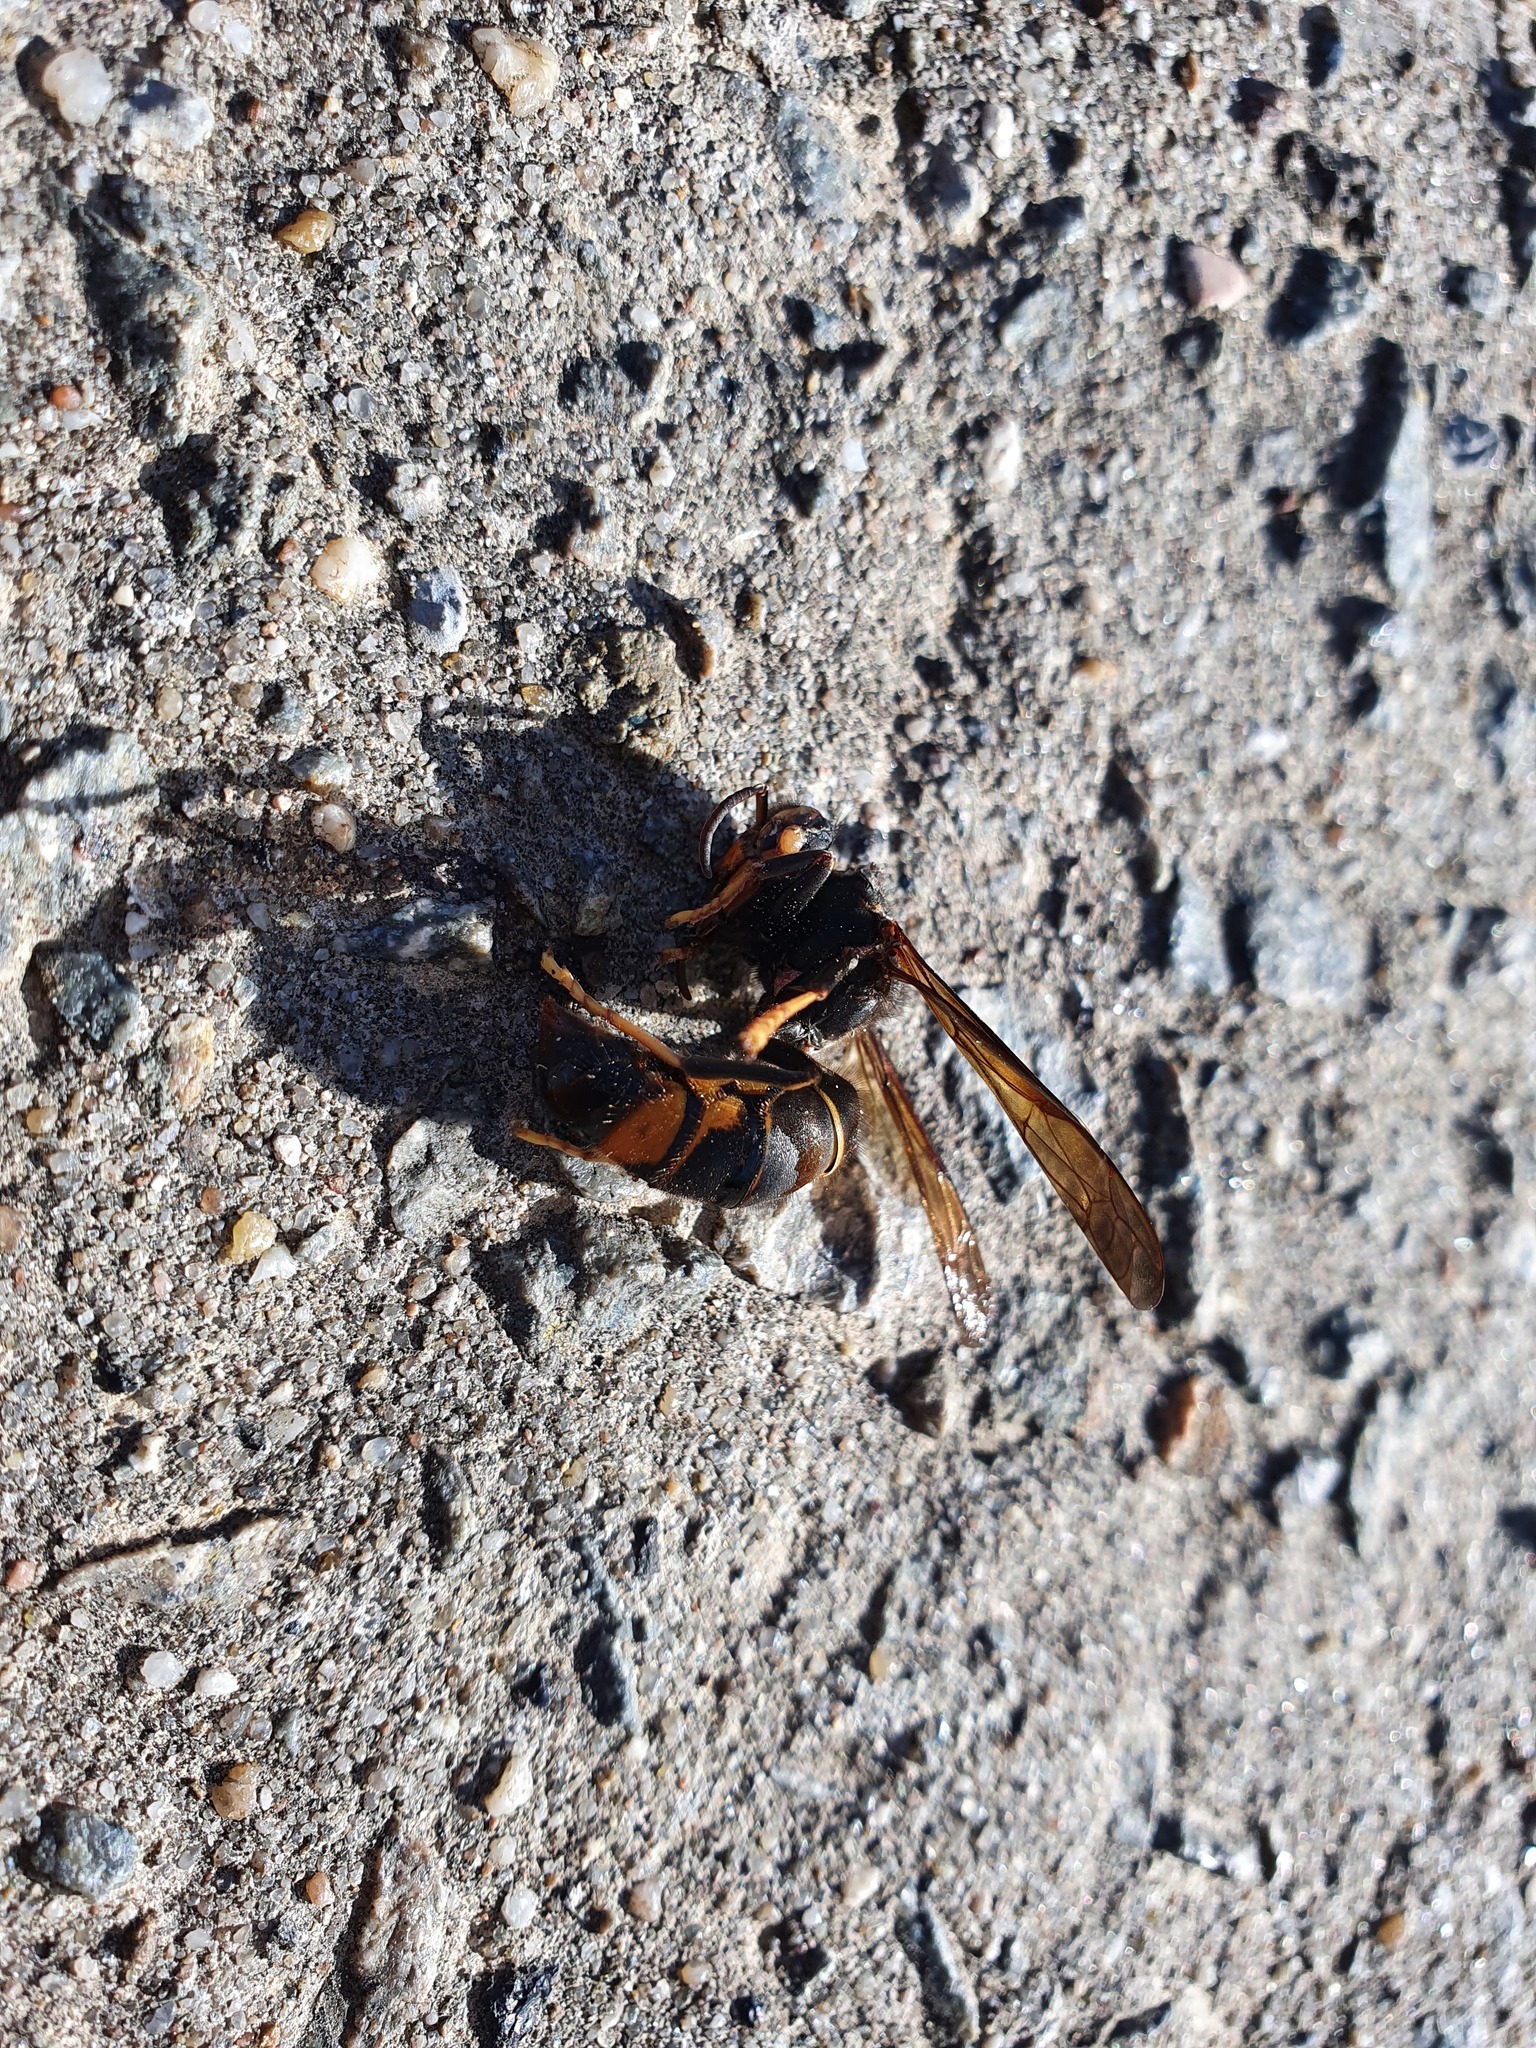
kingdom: Animalia
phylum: Arthropoda
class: Insecta
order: Hymenoptera
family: Vespidae
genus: Vespa
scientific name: Vespa velutina
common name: Asian hornet
